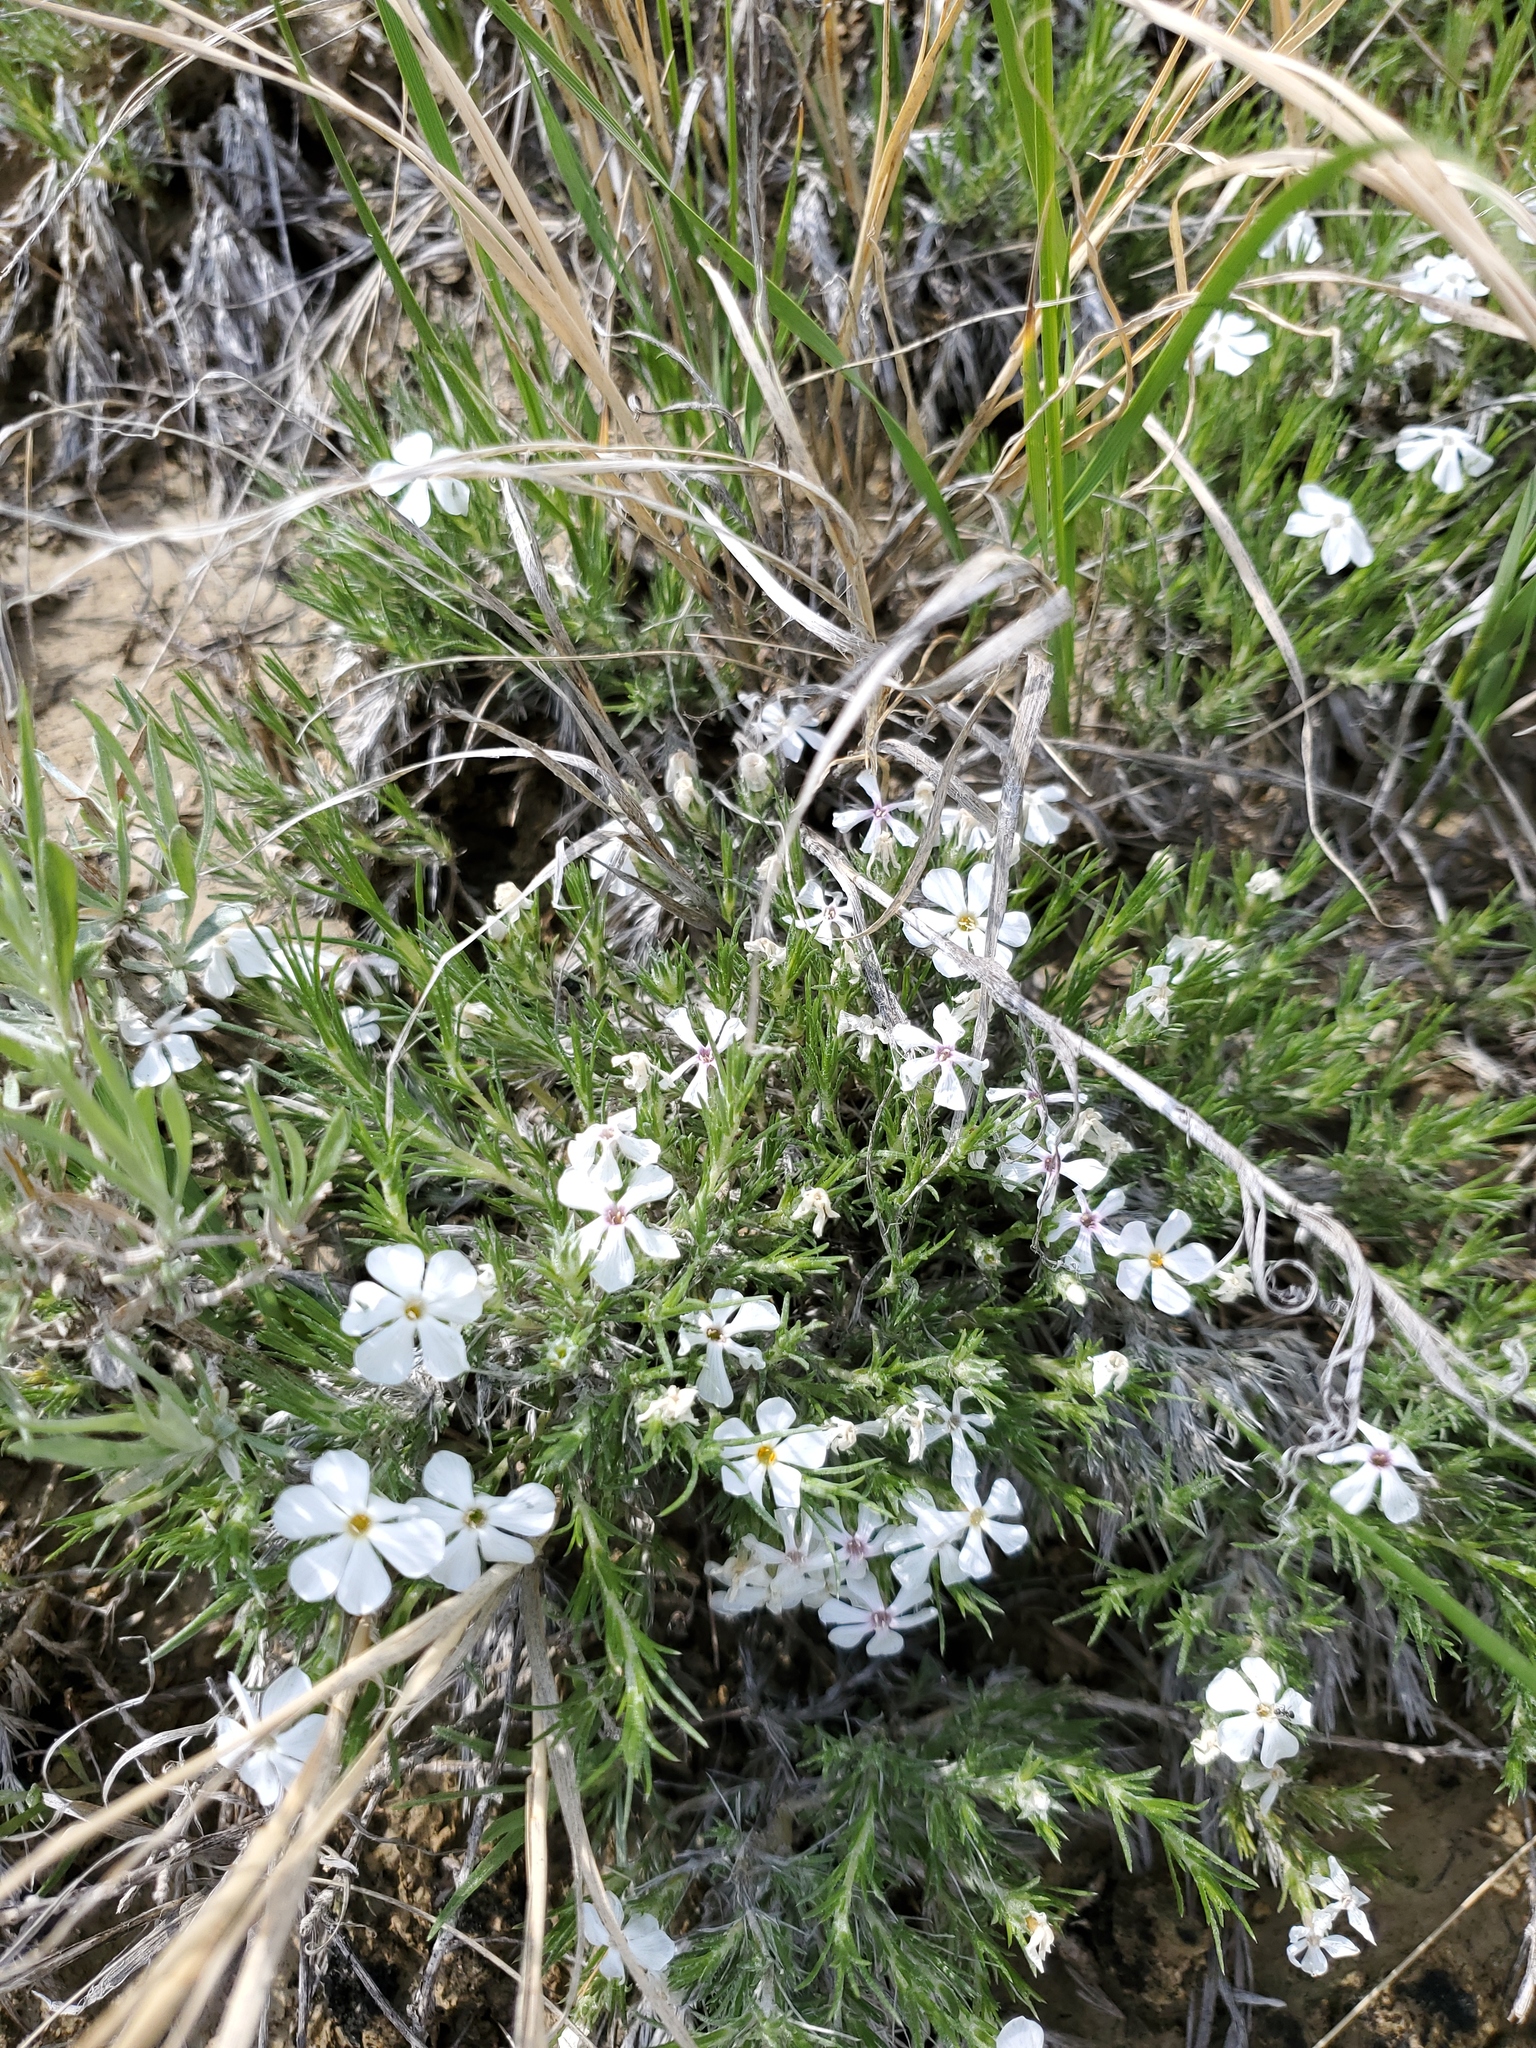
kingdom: Plantae
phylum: Tracheophyta
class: Magnoliopsida
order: Ericales
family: Polemoniaceae
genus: Phlox
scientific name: Phlox hoodii
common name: Moss phlox
